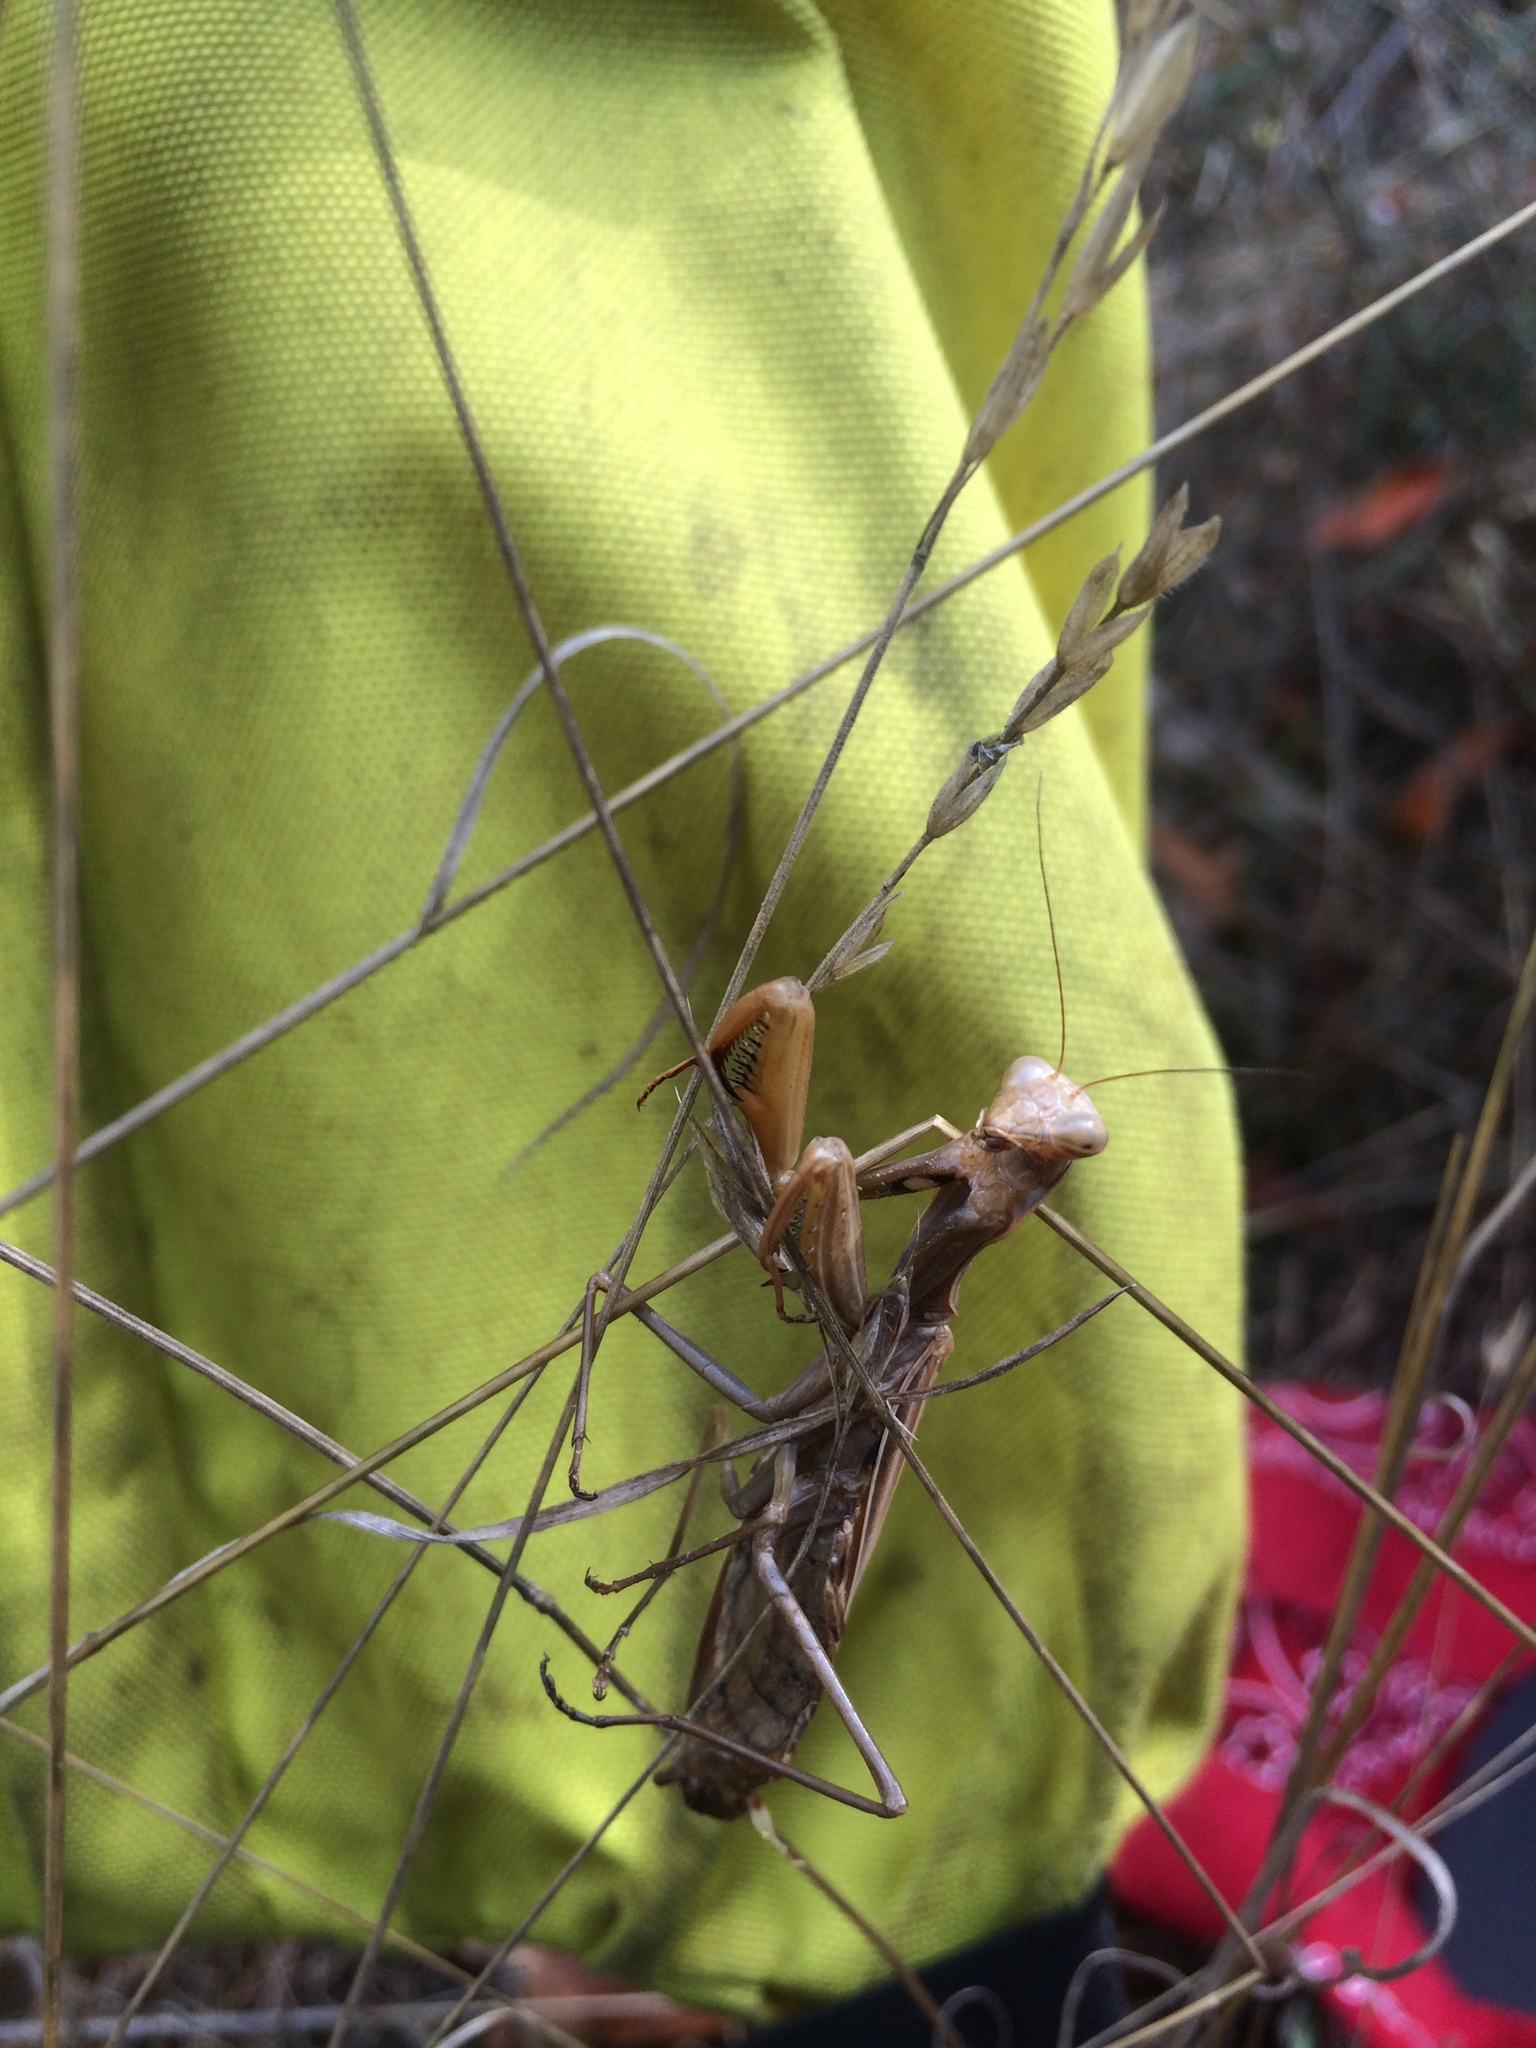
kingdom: Animalia
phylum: Arthropoda
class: Insecta
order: Mantodea
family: Mantidae
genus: Mantis
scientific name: Mantis religiosa
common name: Praying mantis
